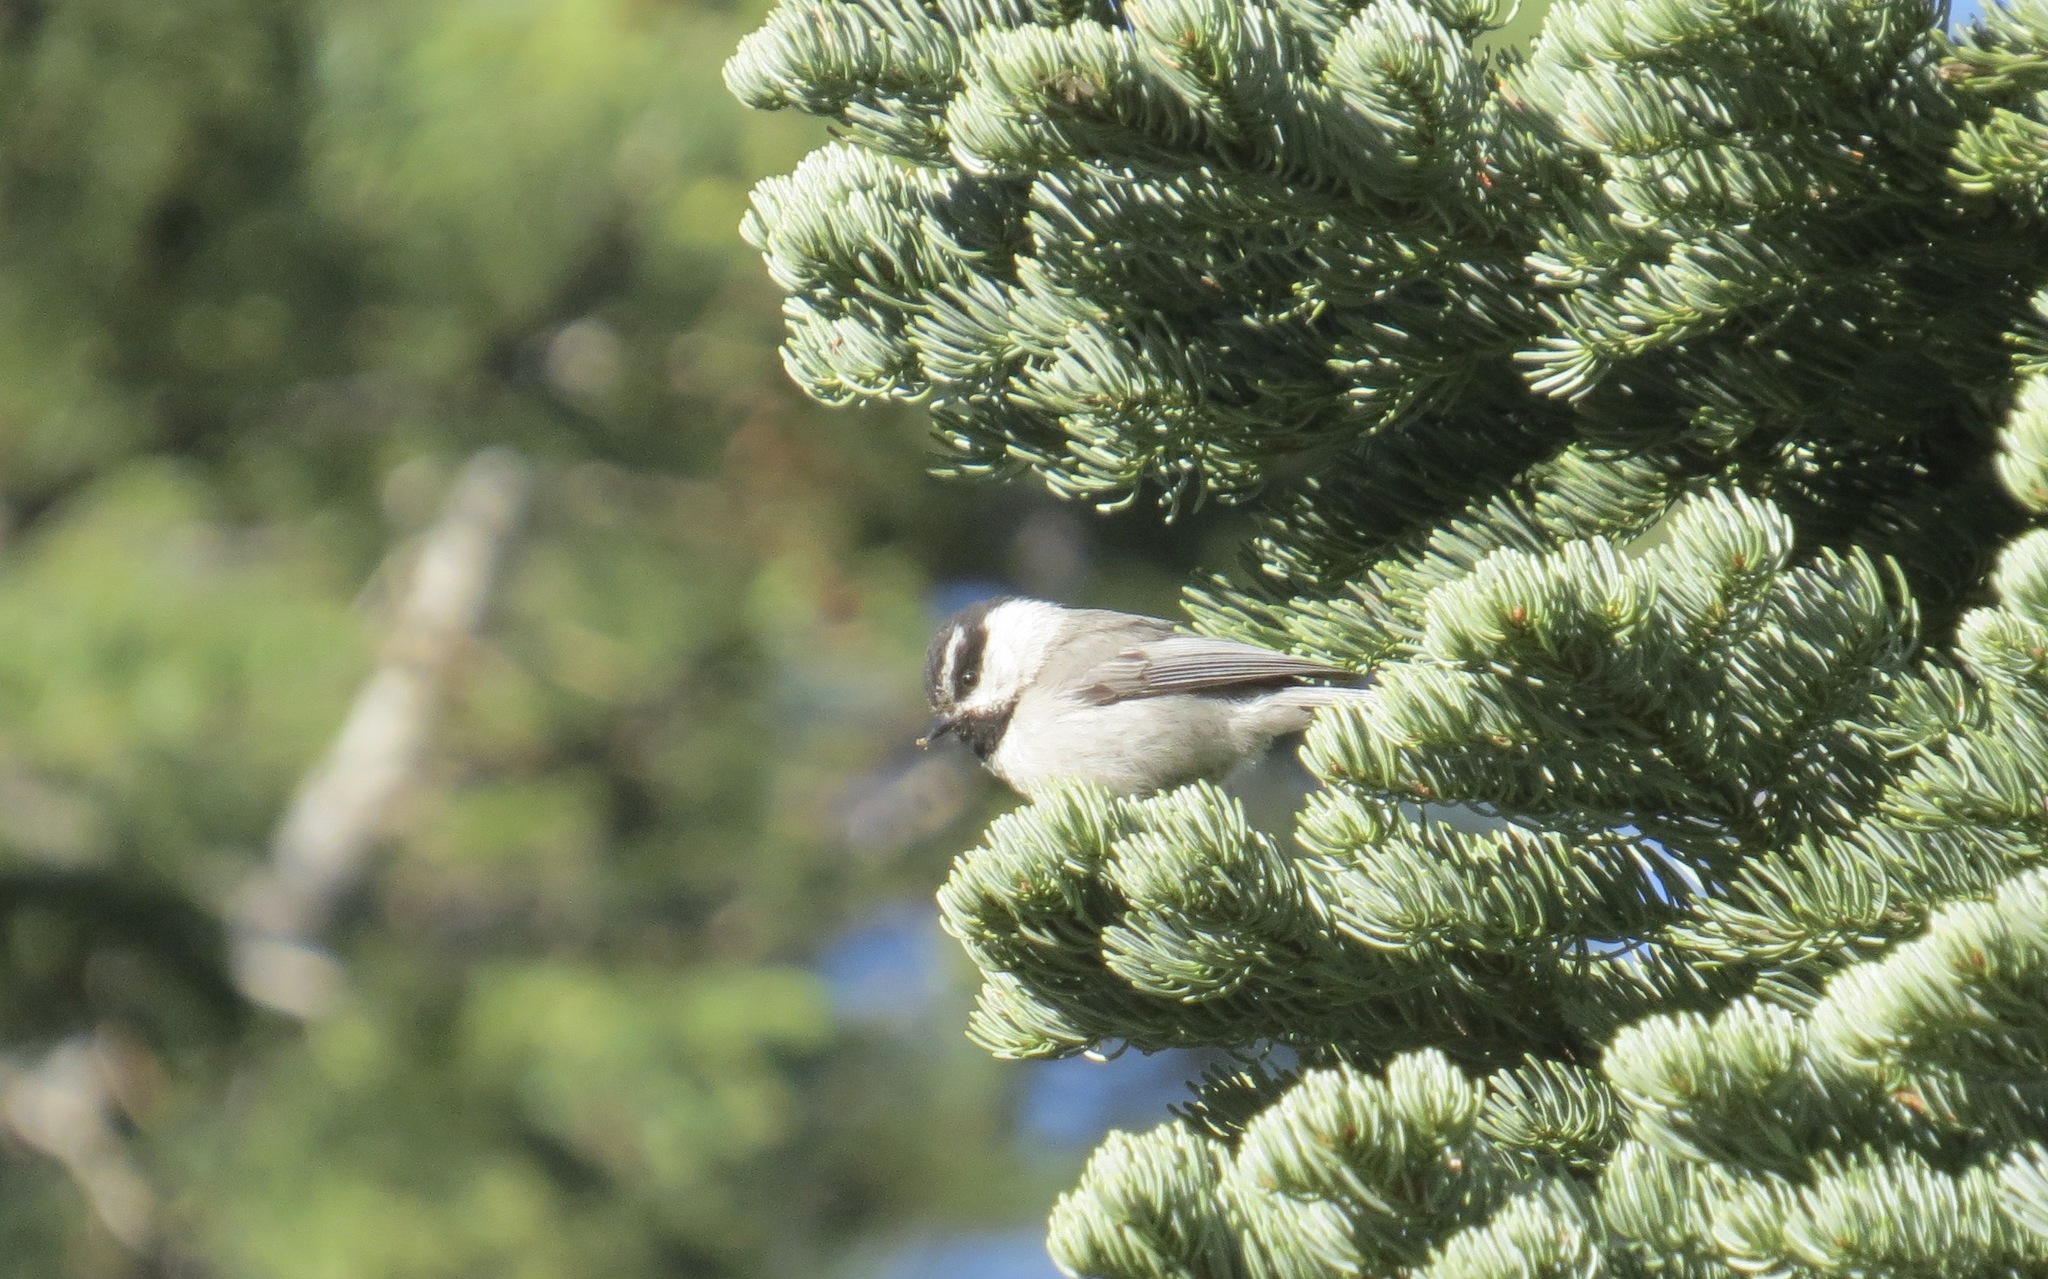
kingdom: Animalia
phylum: Chordata
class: Aves
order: Passeriformes
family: Paridae
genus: Poecile
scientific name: Poecile gambeli
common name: Mountain chickadee
